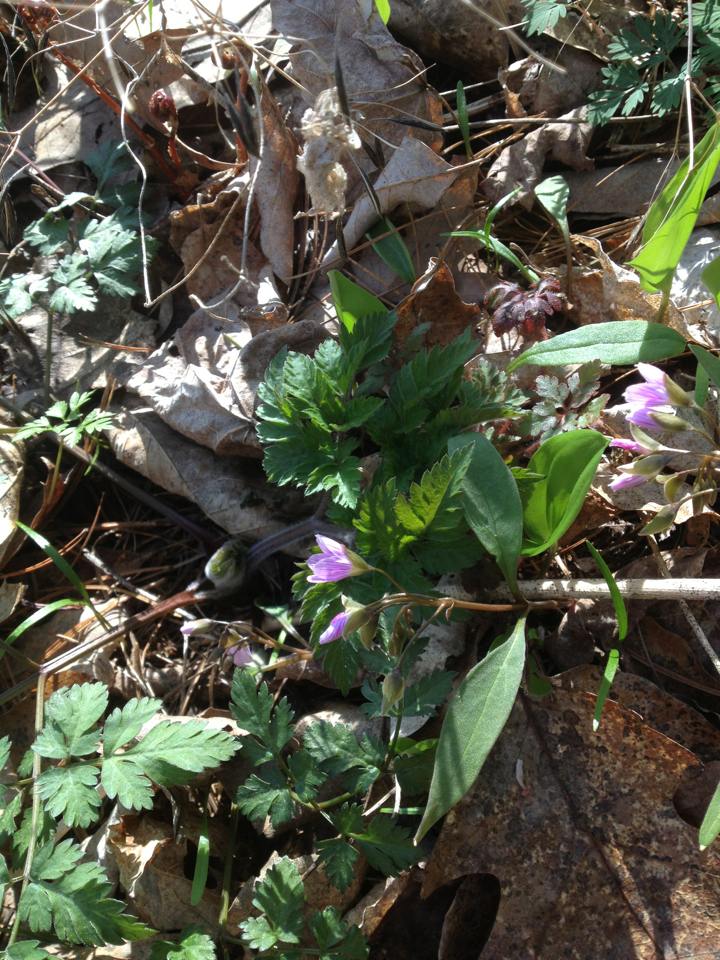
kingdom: Plantae
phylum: Tracheophyta
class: Magnoliopsida
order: Caryophyllales
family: Montiaceae
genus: Claytonia
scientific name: Claytonia caroliniana
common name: Carolina spring beauty
